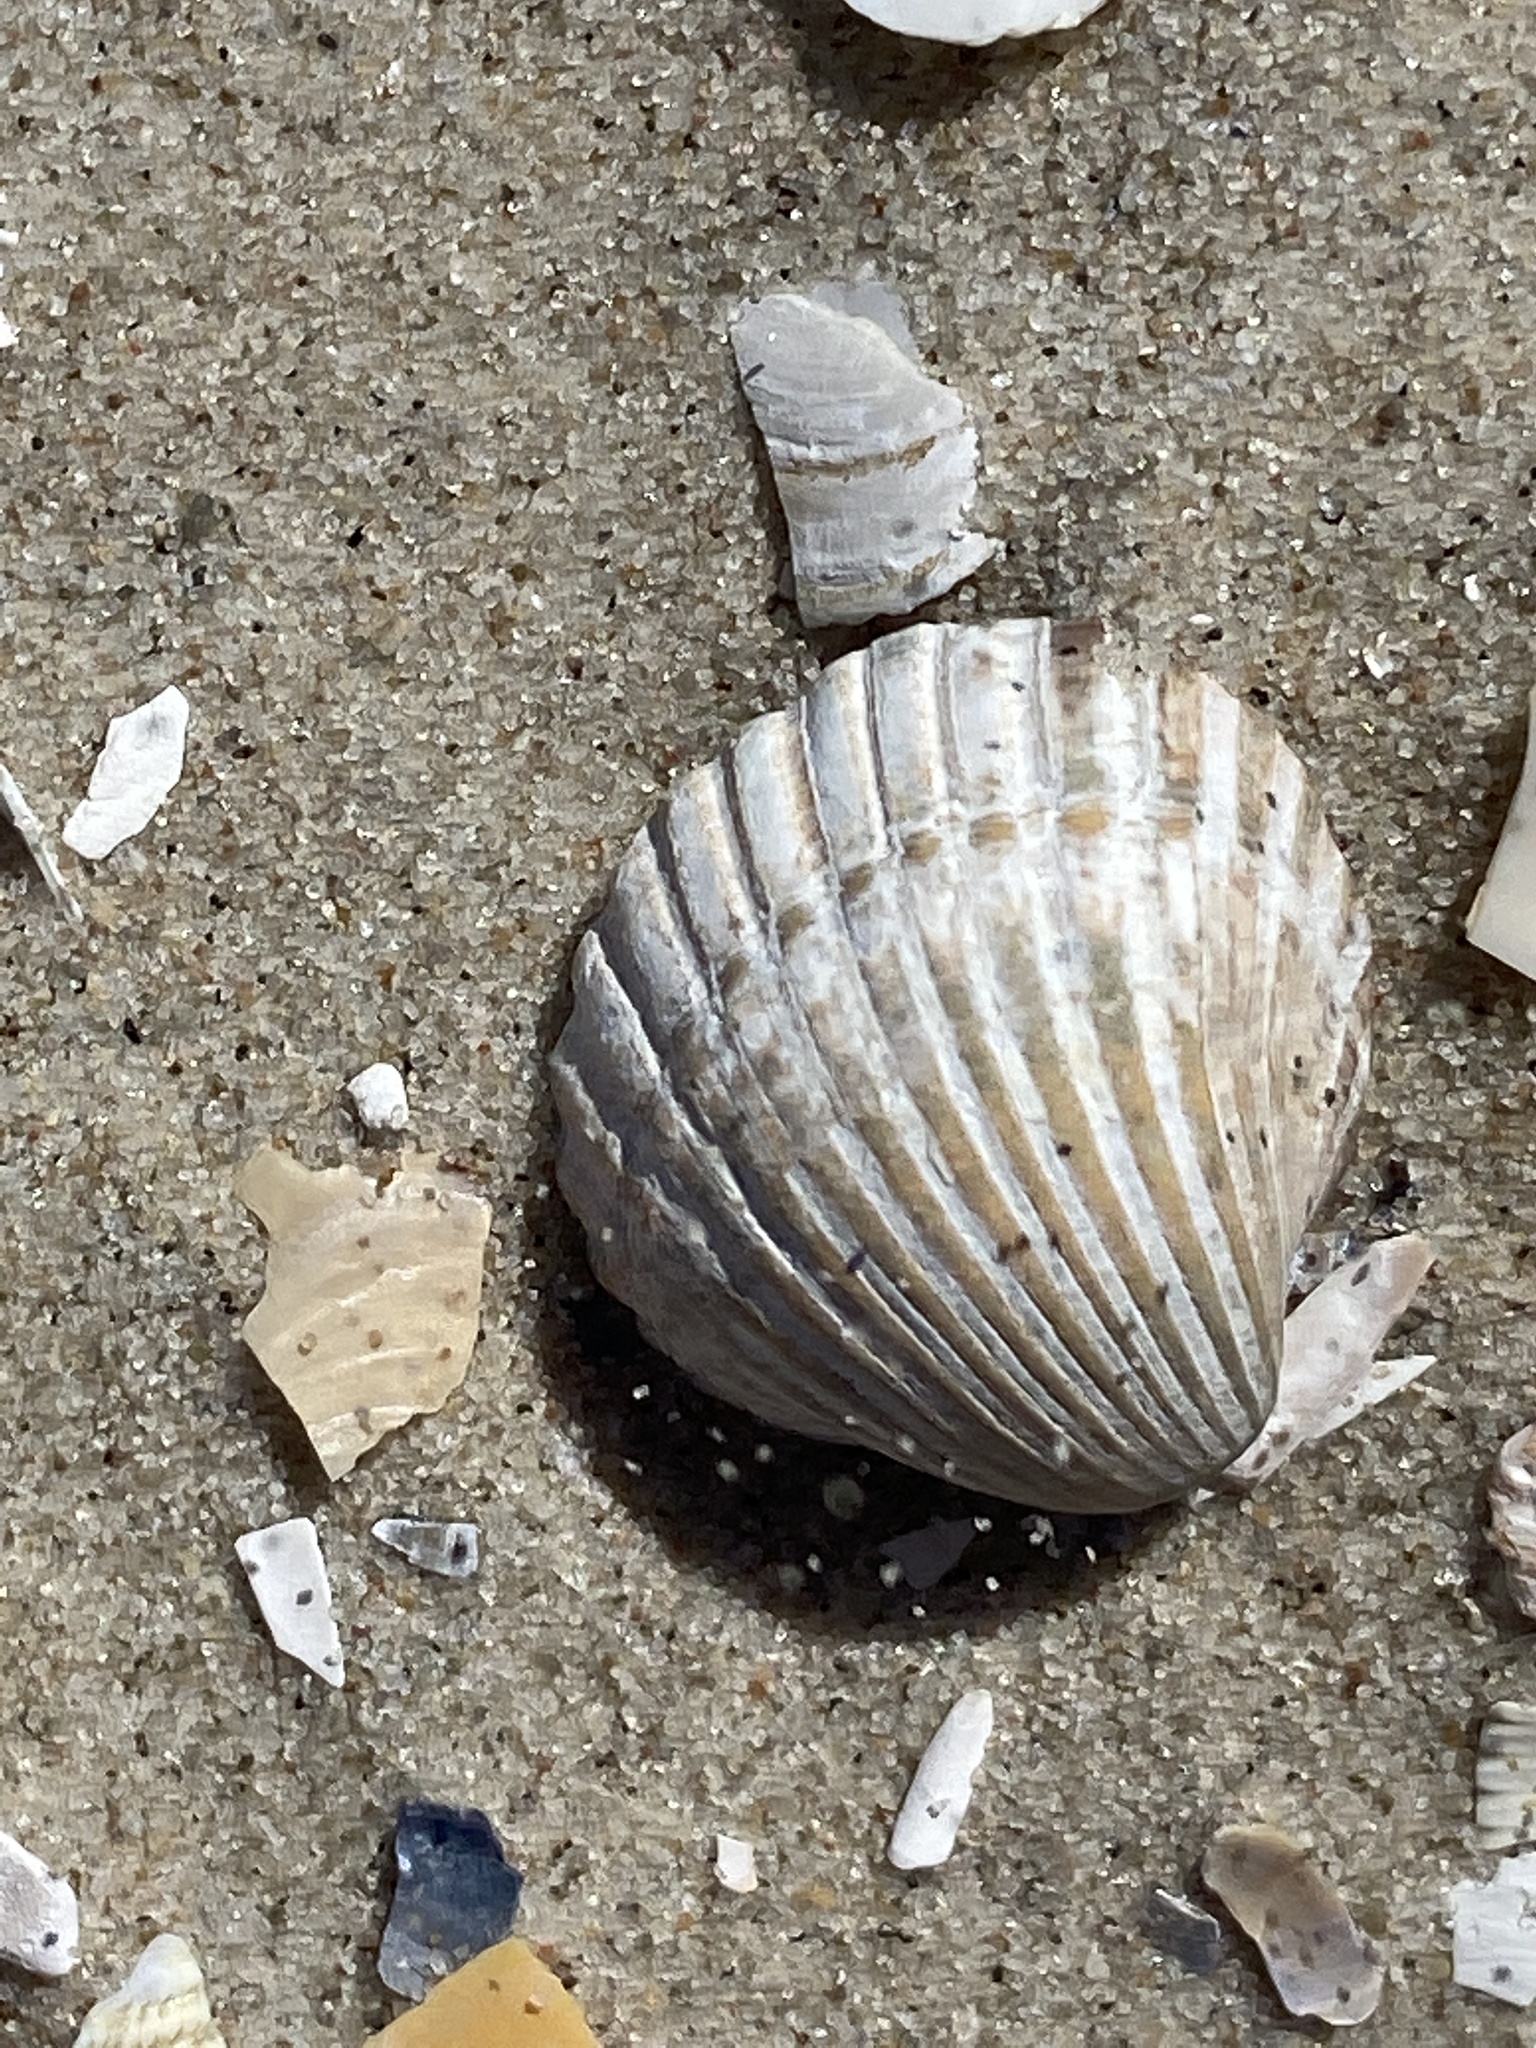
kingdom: Animalia
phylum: Mollusca
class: Bivalvia
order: Cardiida
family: Cardiidae
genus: Cerastoderma
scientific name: Cerastoderma glaucum
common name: Lagoon cockle
